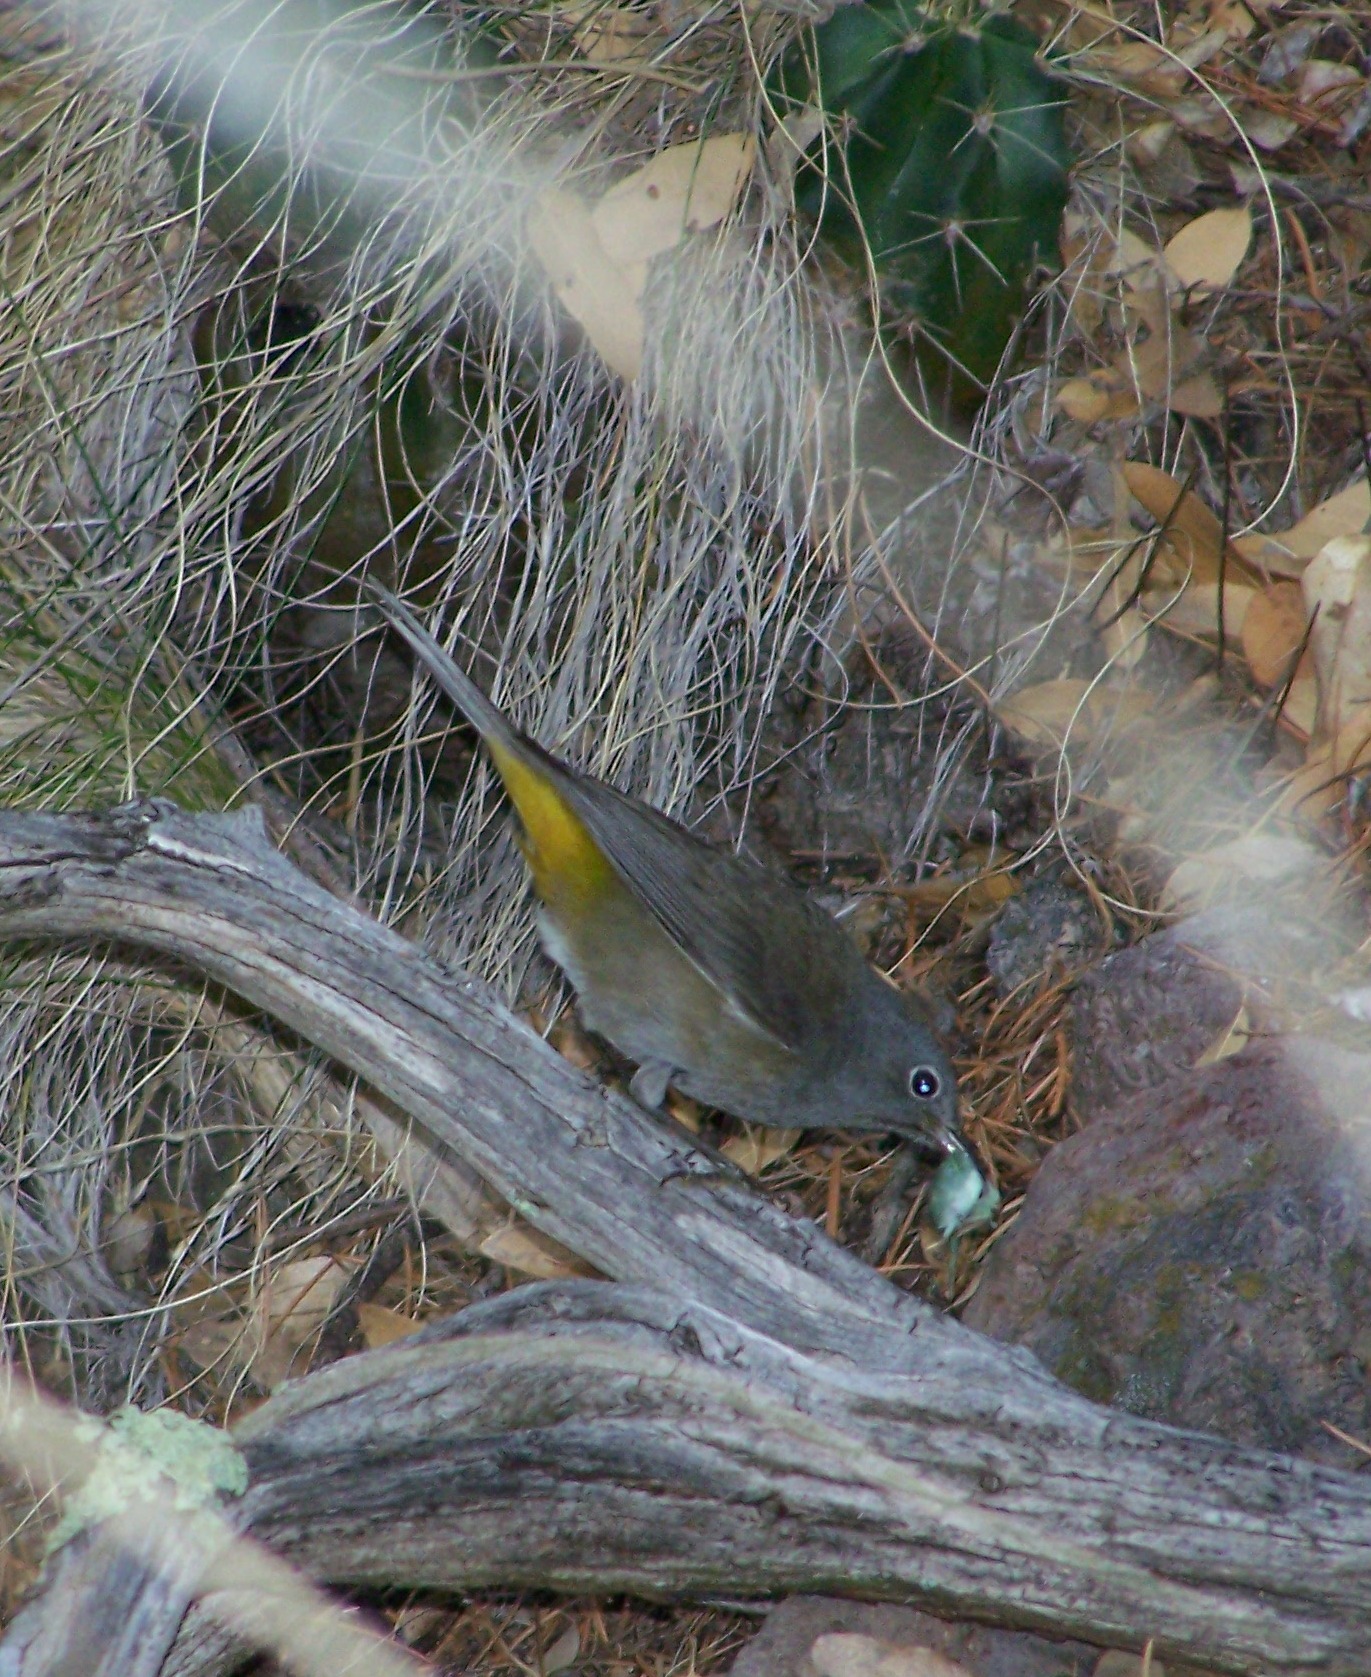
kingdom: Animalia
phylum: Chordata
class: Aves
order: Passeriformes
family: Parulidae
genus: Leiothlypis
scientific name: Leiothlypis crissalis
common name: Colima warbler
